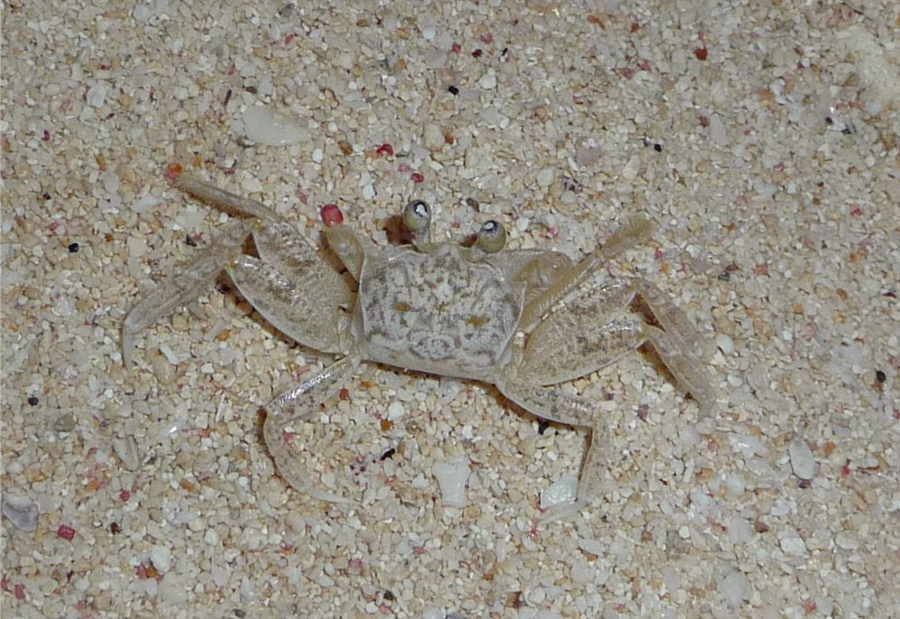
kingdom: Animalia
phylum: Arthropoda
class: Malacostraca
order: Decapoda
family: Ocypodidae
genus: Ocypode
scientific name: Ocypode quadrata
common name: Ghost crab
